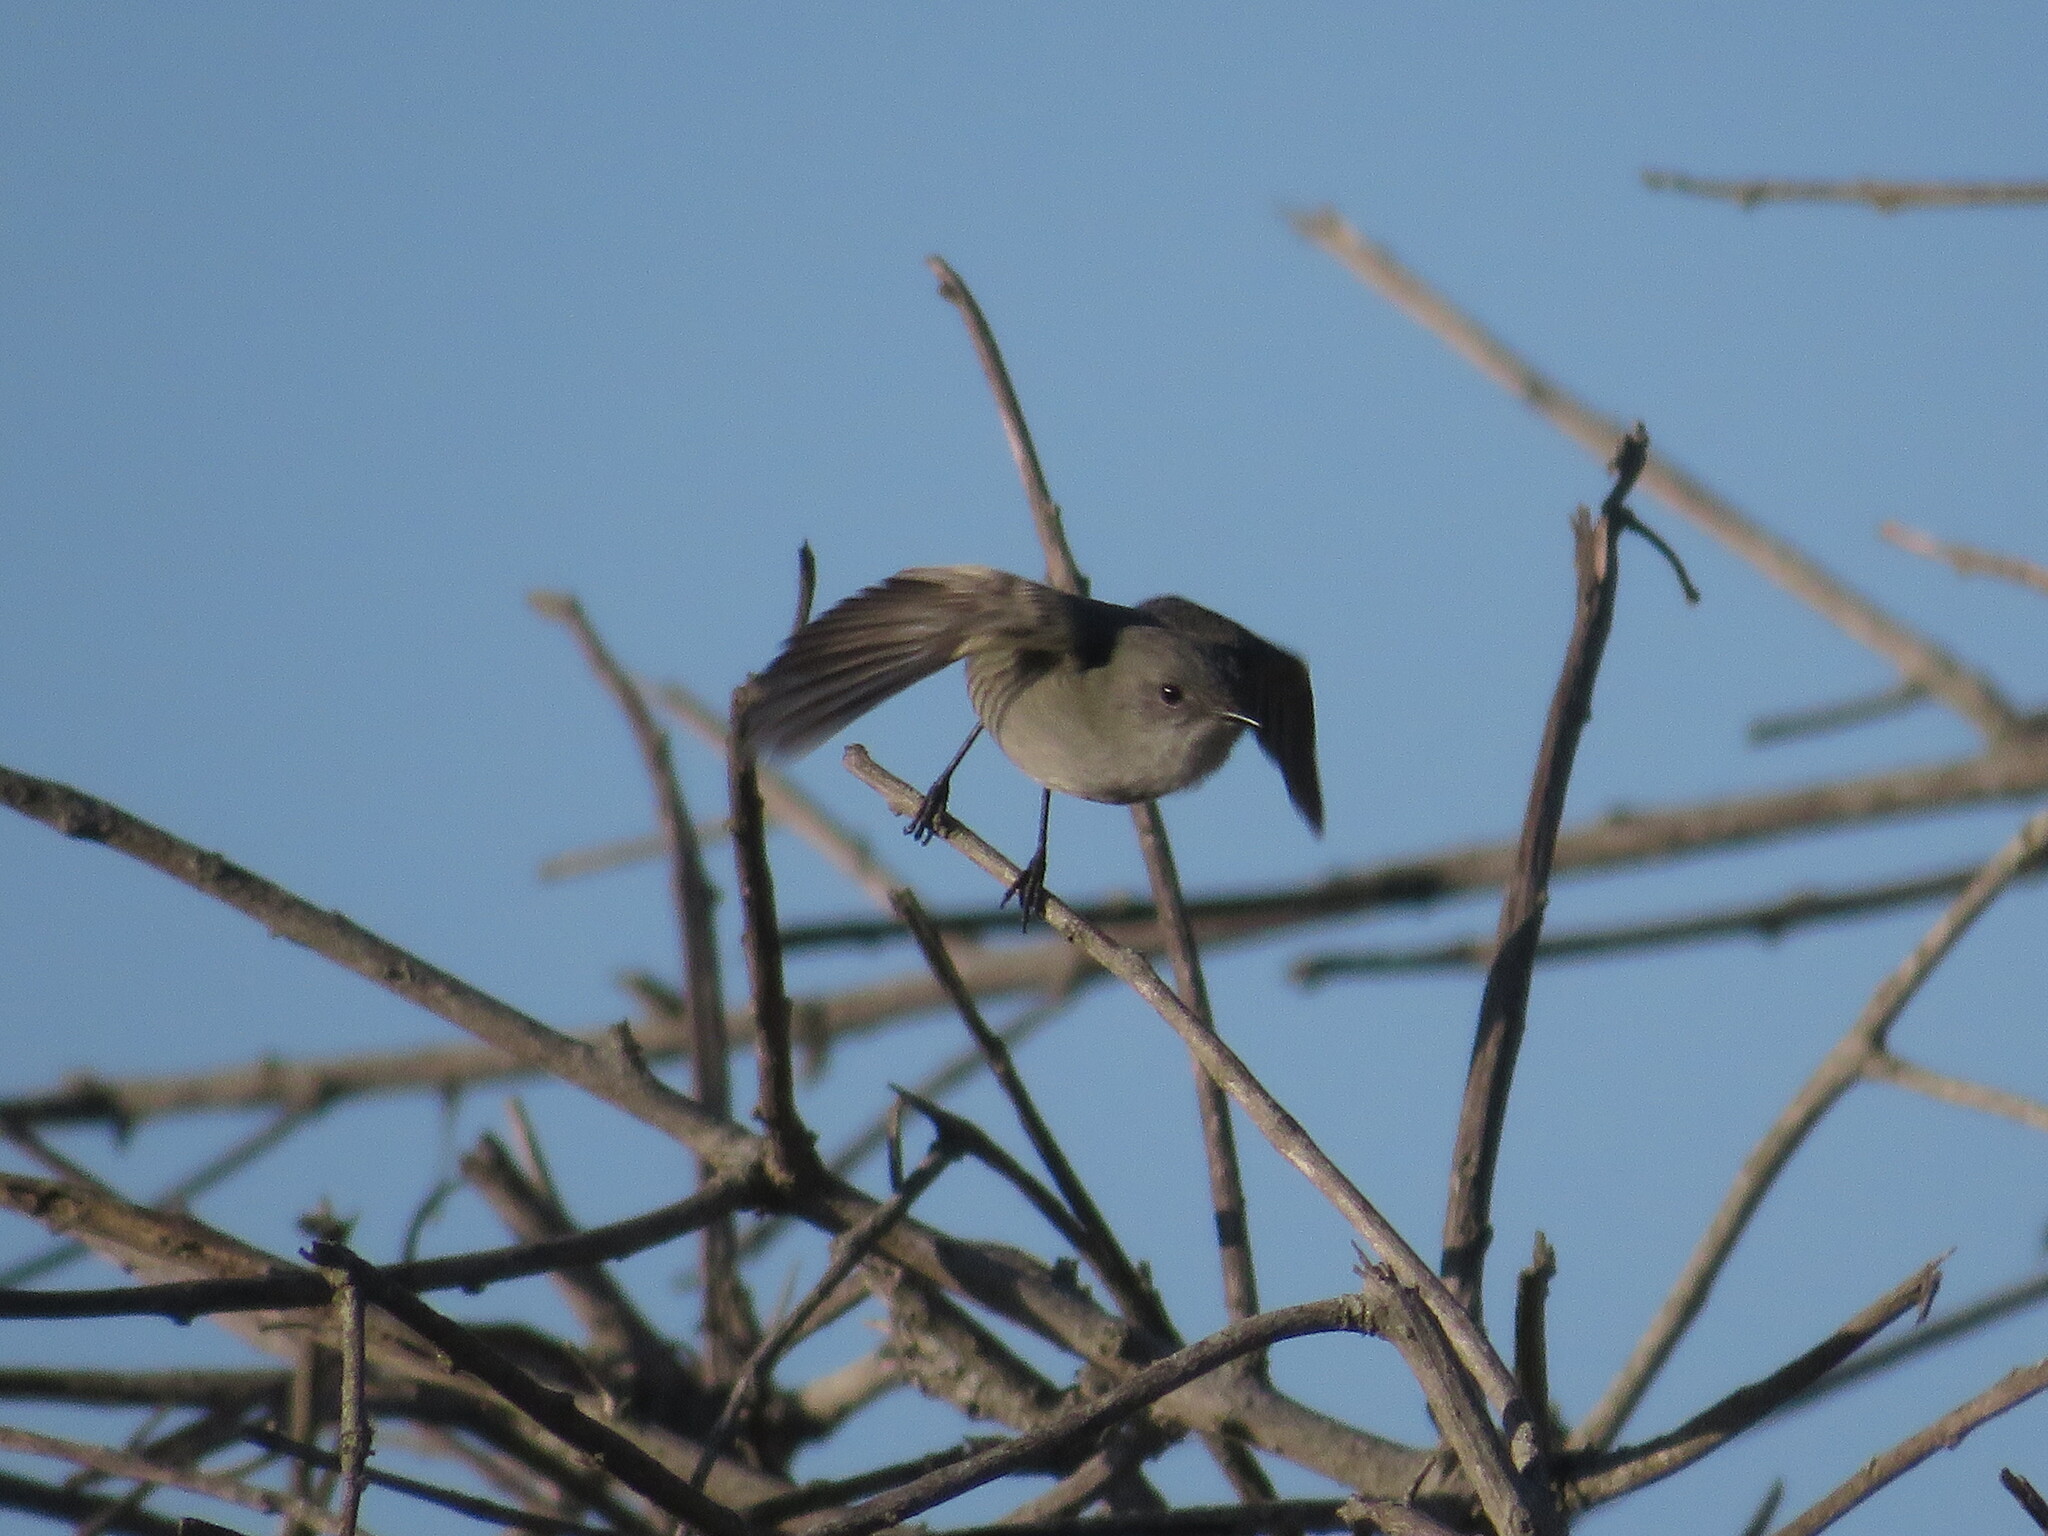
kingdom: Animalia
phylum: Chordata
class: Aves
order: Passeriformes
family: Tyrannidae
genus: Serpophaga
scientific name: Serpophaga nigricans
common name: Sooty tyrannulet
